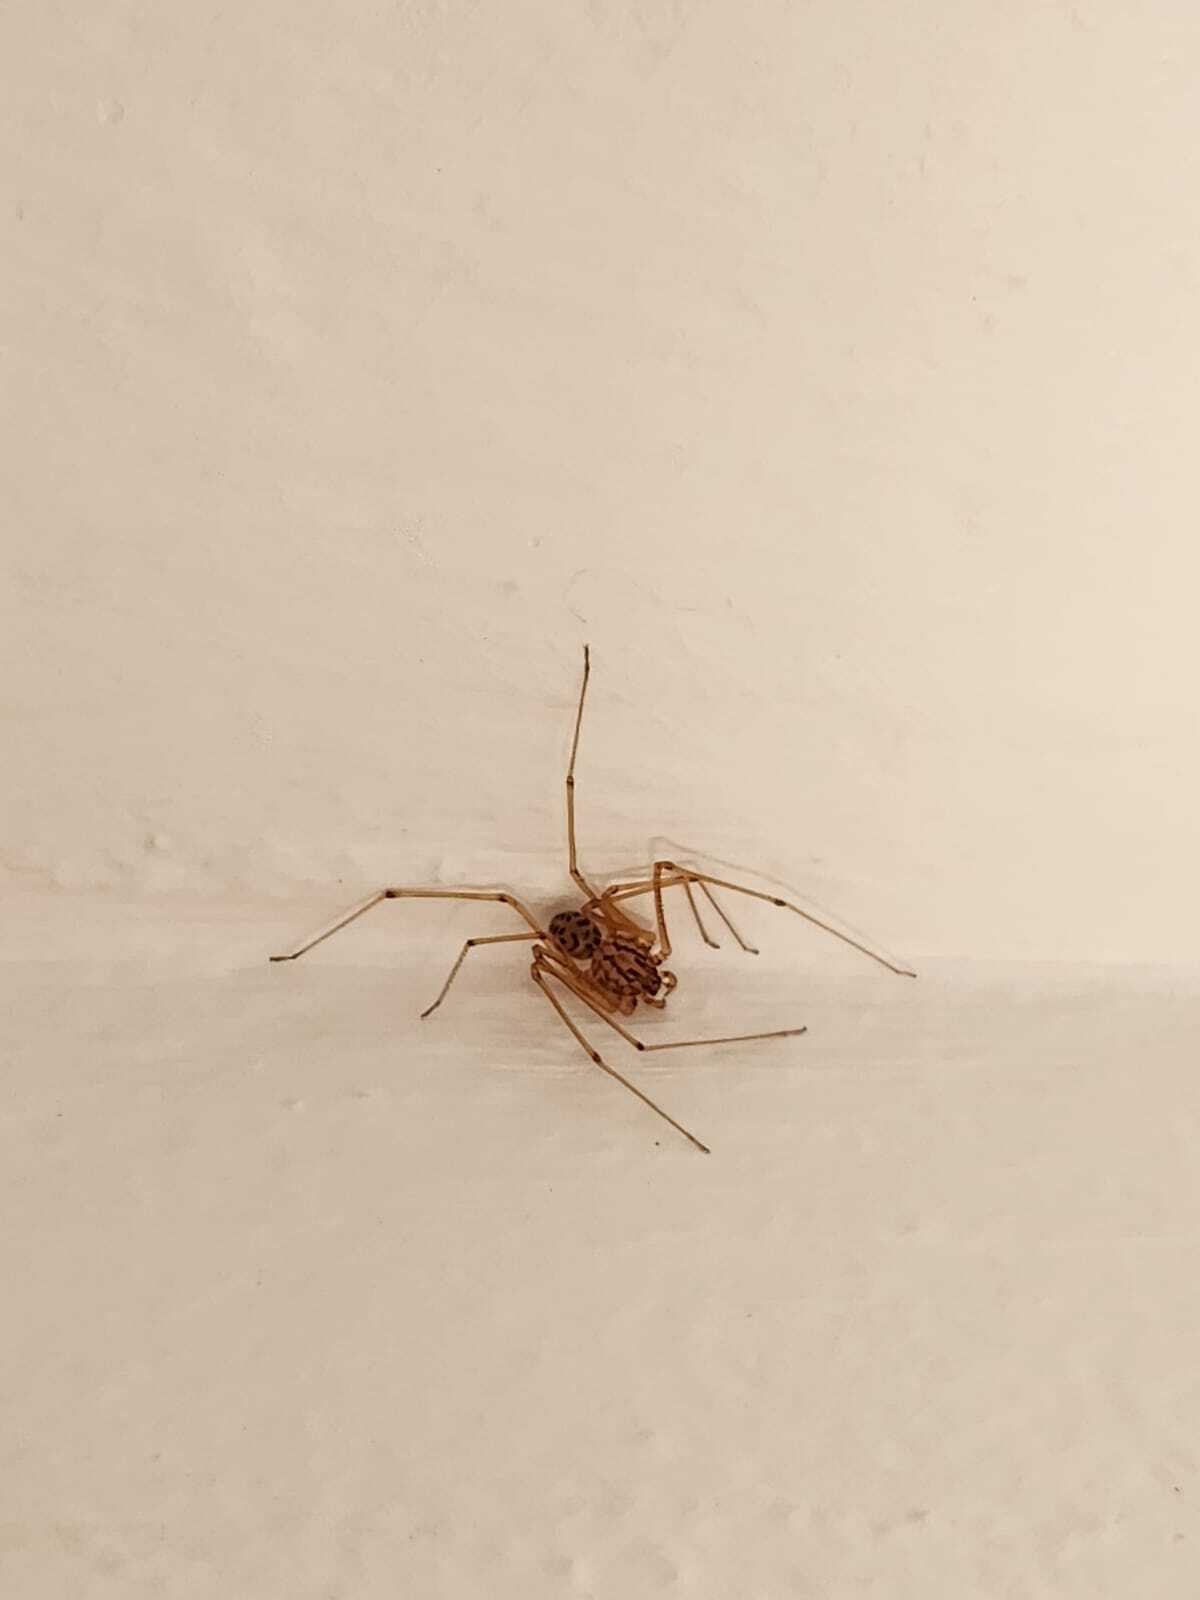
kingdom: Animalia
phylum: Arthropoda
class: Arachnida
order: Araneae
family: Scytodidae
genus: Scytodes
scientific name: Scytodes univittata
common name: Spitting spider
